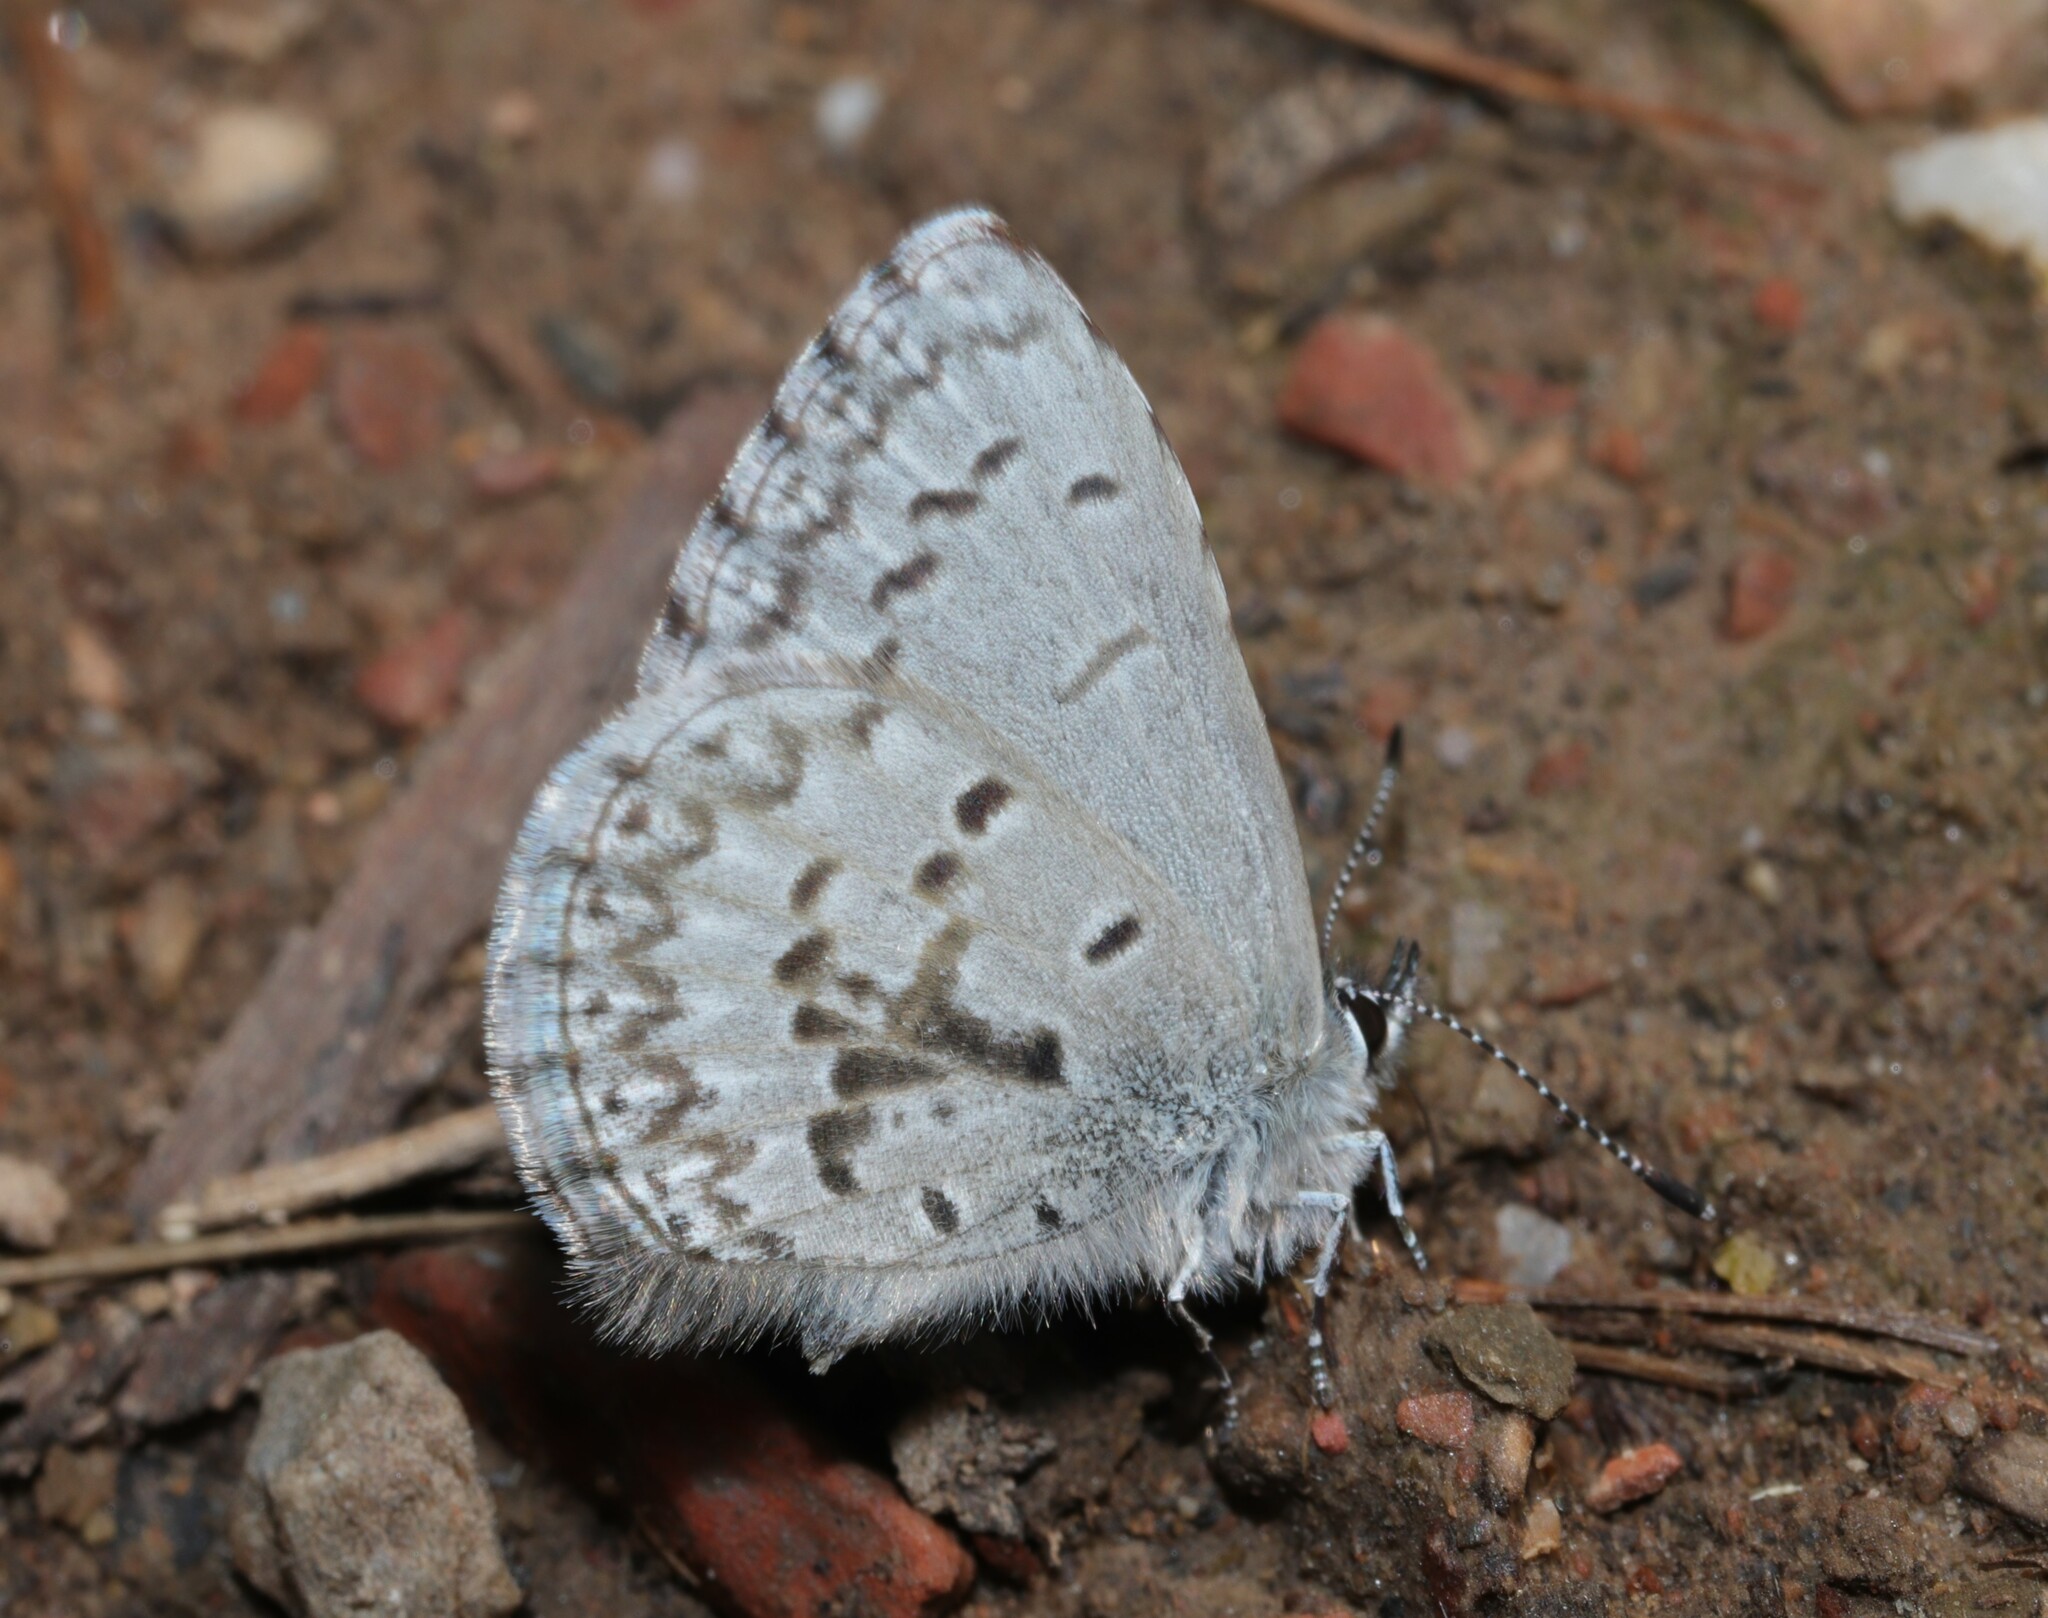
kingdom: Animalia
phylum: Arthropoda
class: Insecta
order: Lepidoptera
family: Lycaenidae
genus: Celastrina
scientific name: Celastrina asheri
